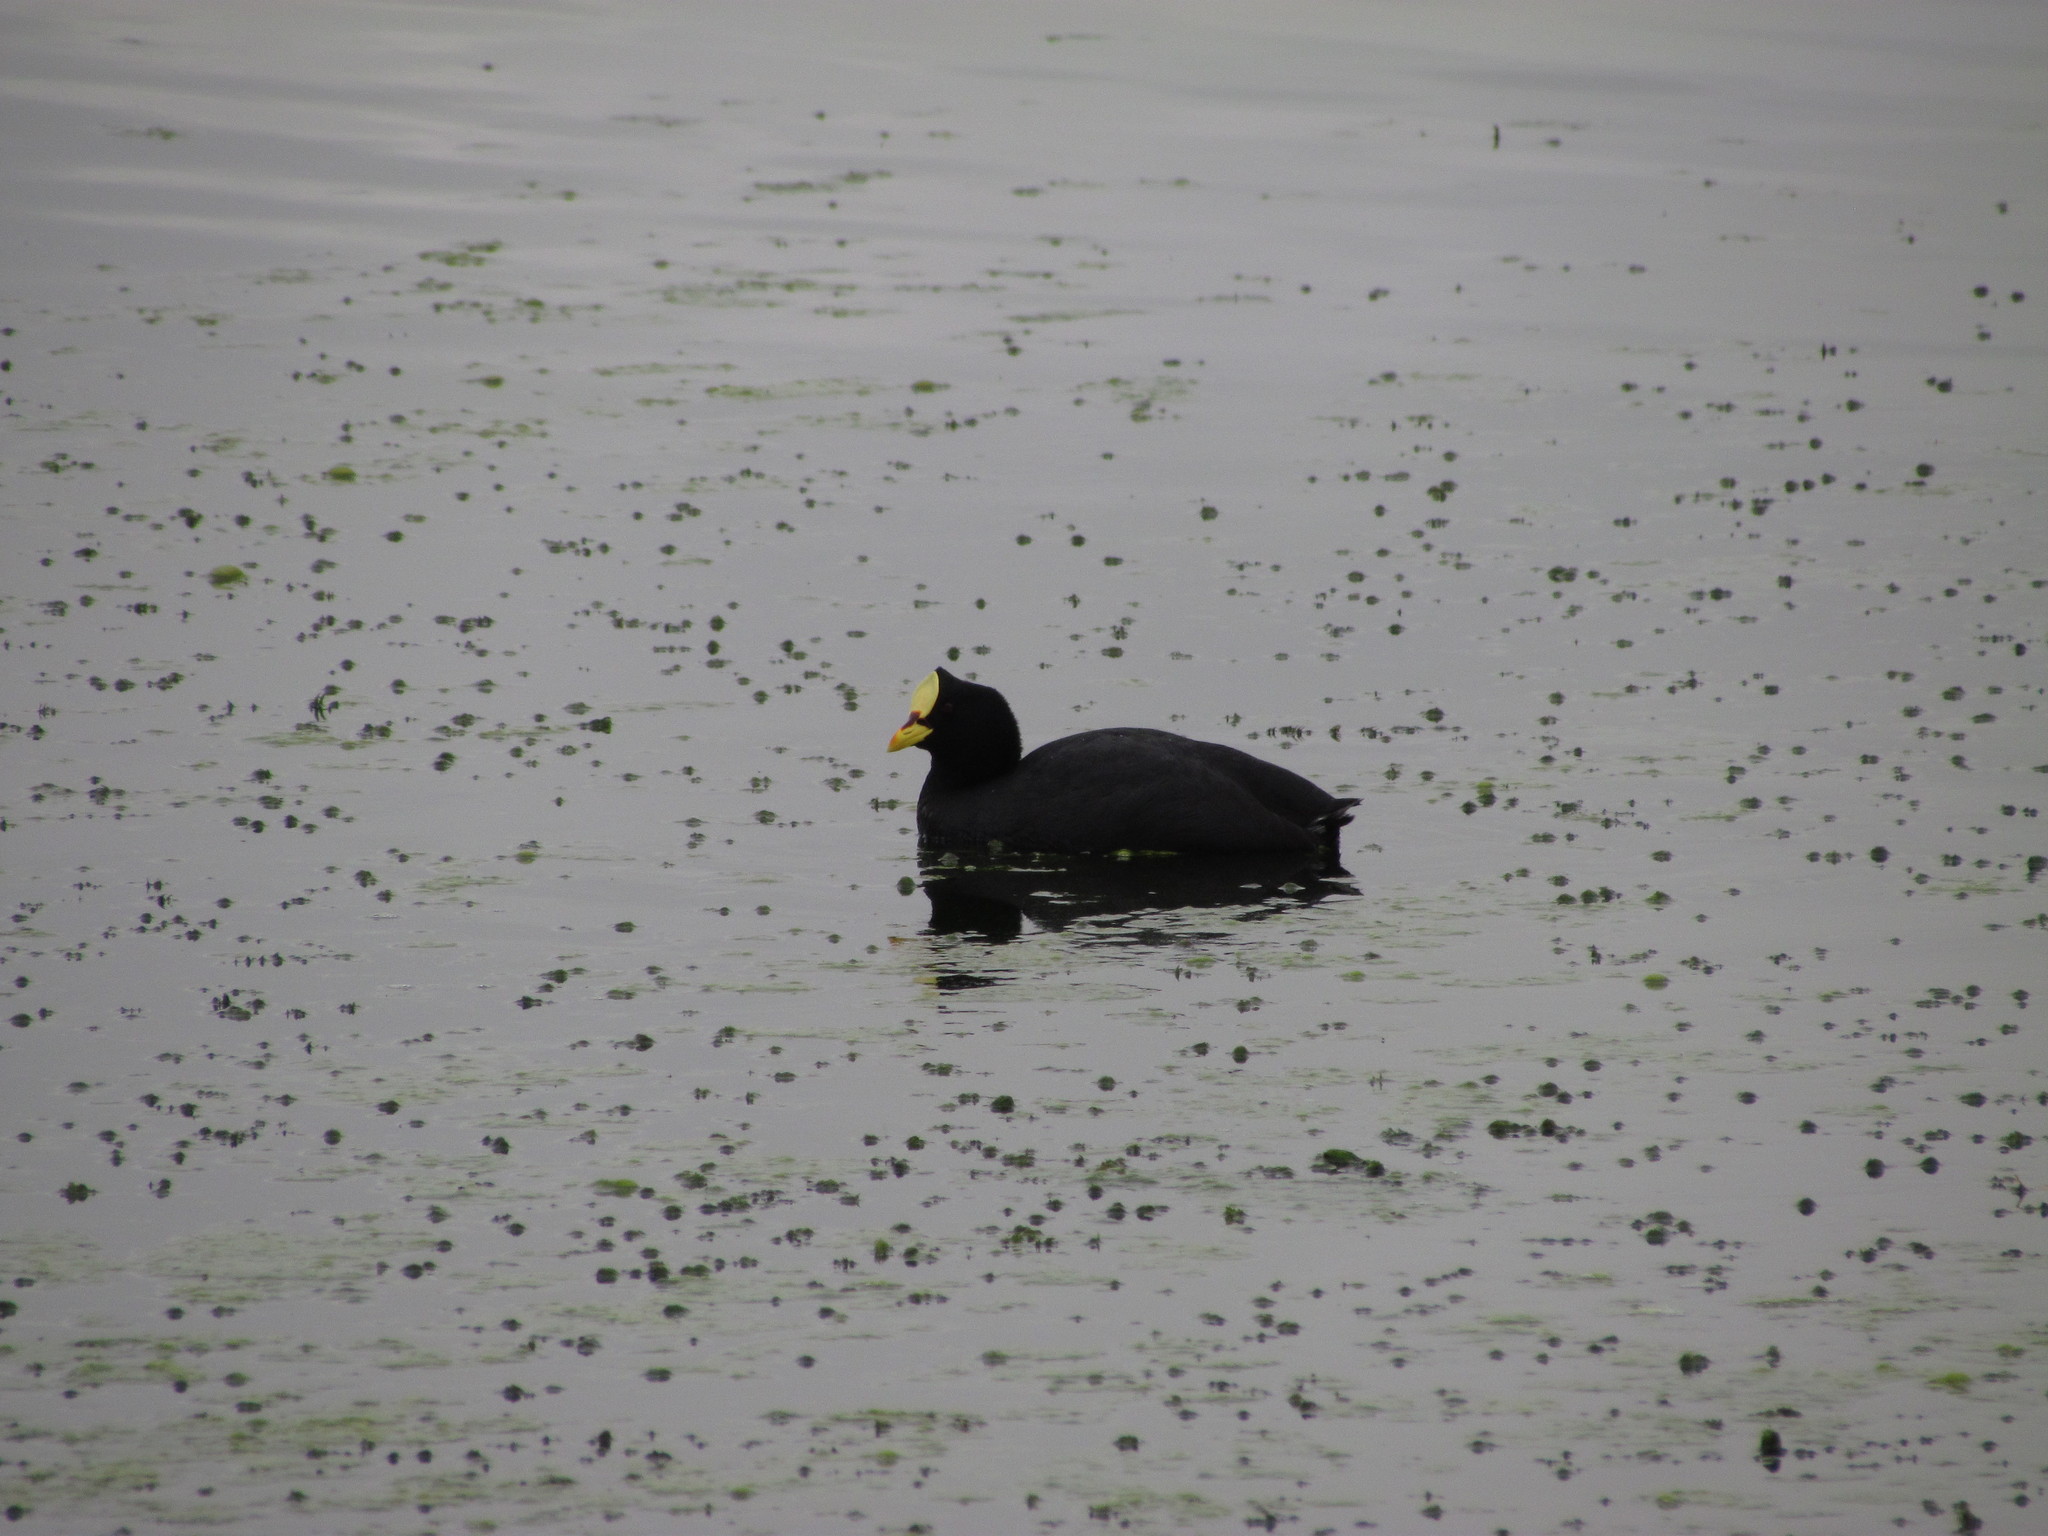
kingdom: Animalia
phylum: Chordata
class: Aves
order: Gruiformes
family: Rallidae
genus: Fulica
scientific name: Fulica armillata
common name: Red-gartered coot
